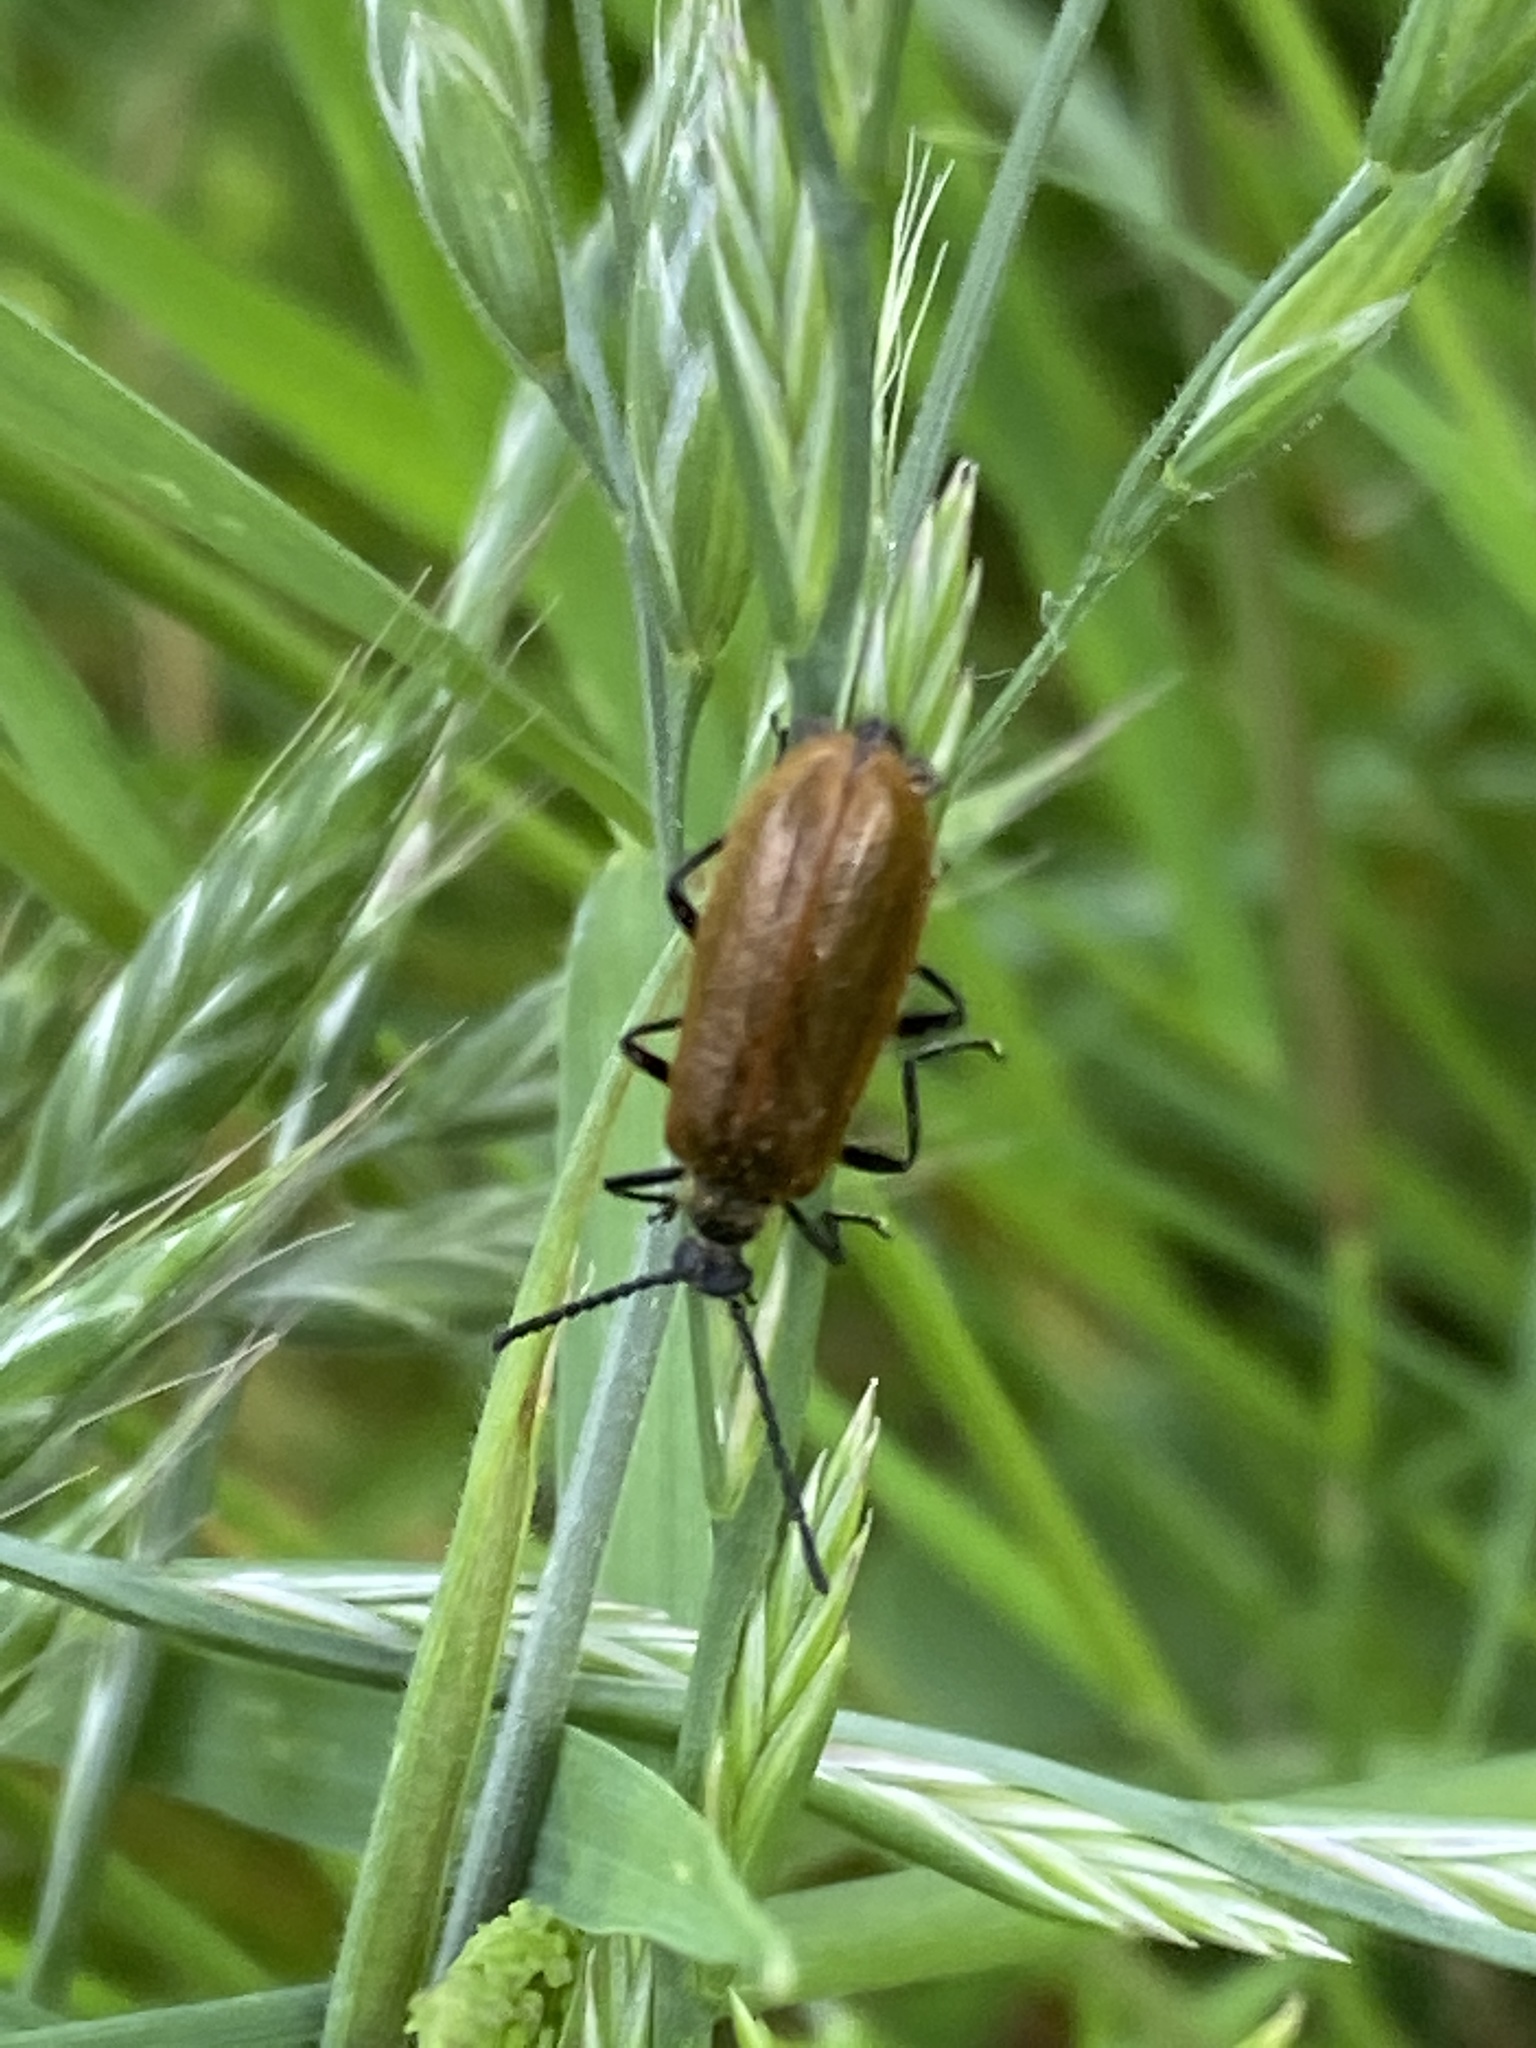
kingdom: Animalia
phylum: Arthropoda
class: Insecta
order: Coleoptera
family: Tenebrionidae
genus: Lagria
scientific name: Lagria hirta
